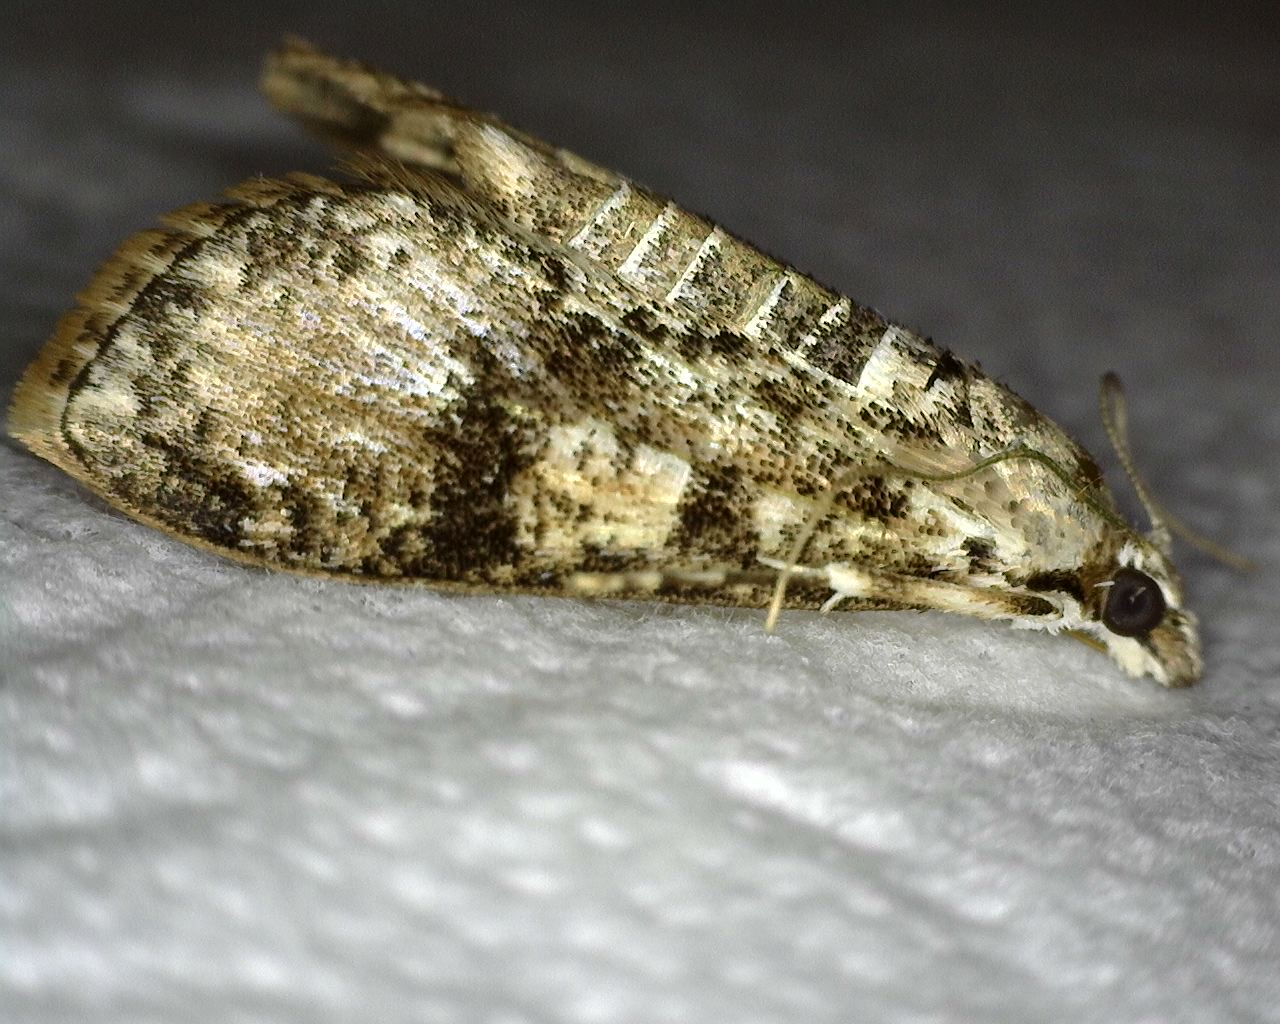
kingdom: Animalia
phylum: Arthropoda
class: Insecta
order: Lepidoptera
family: Crambidae
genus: Palpita
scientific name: Palpita magniferalis
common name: Splendid palpita moth
